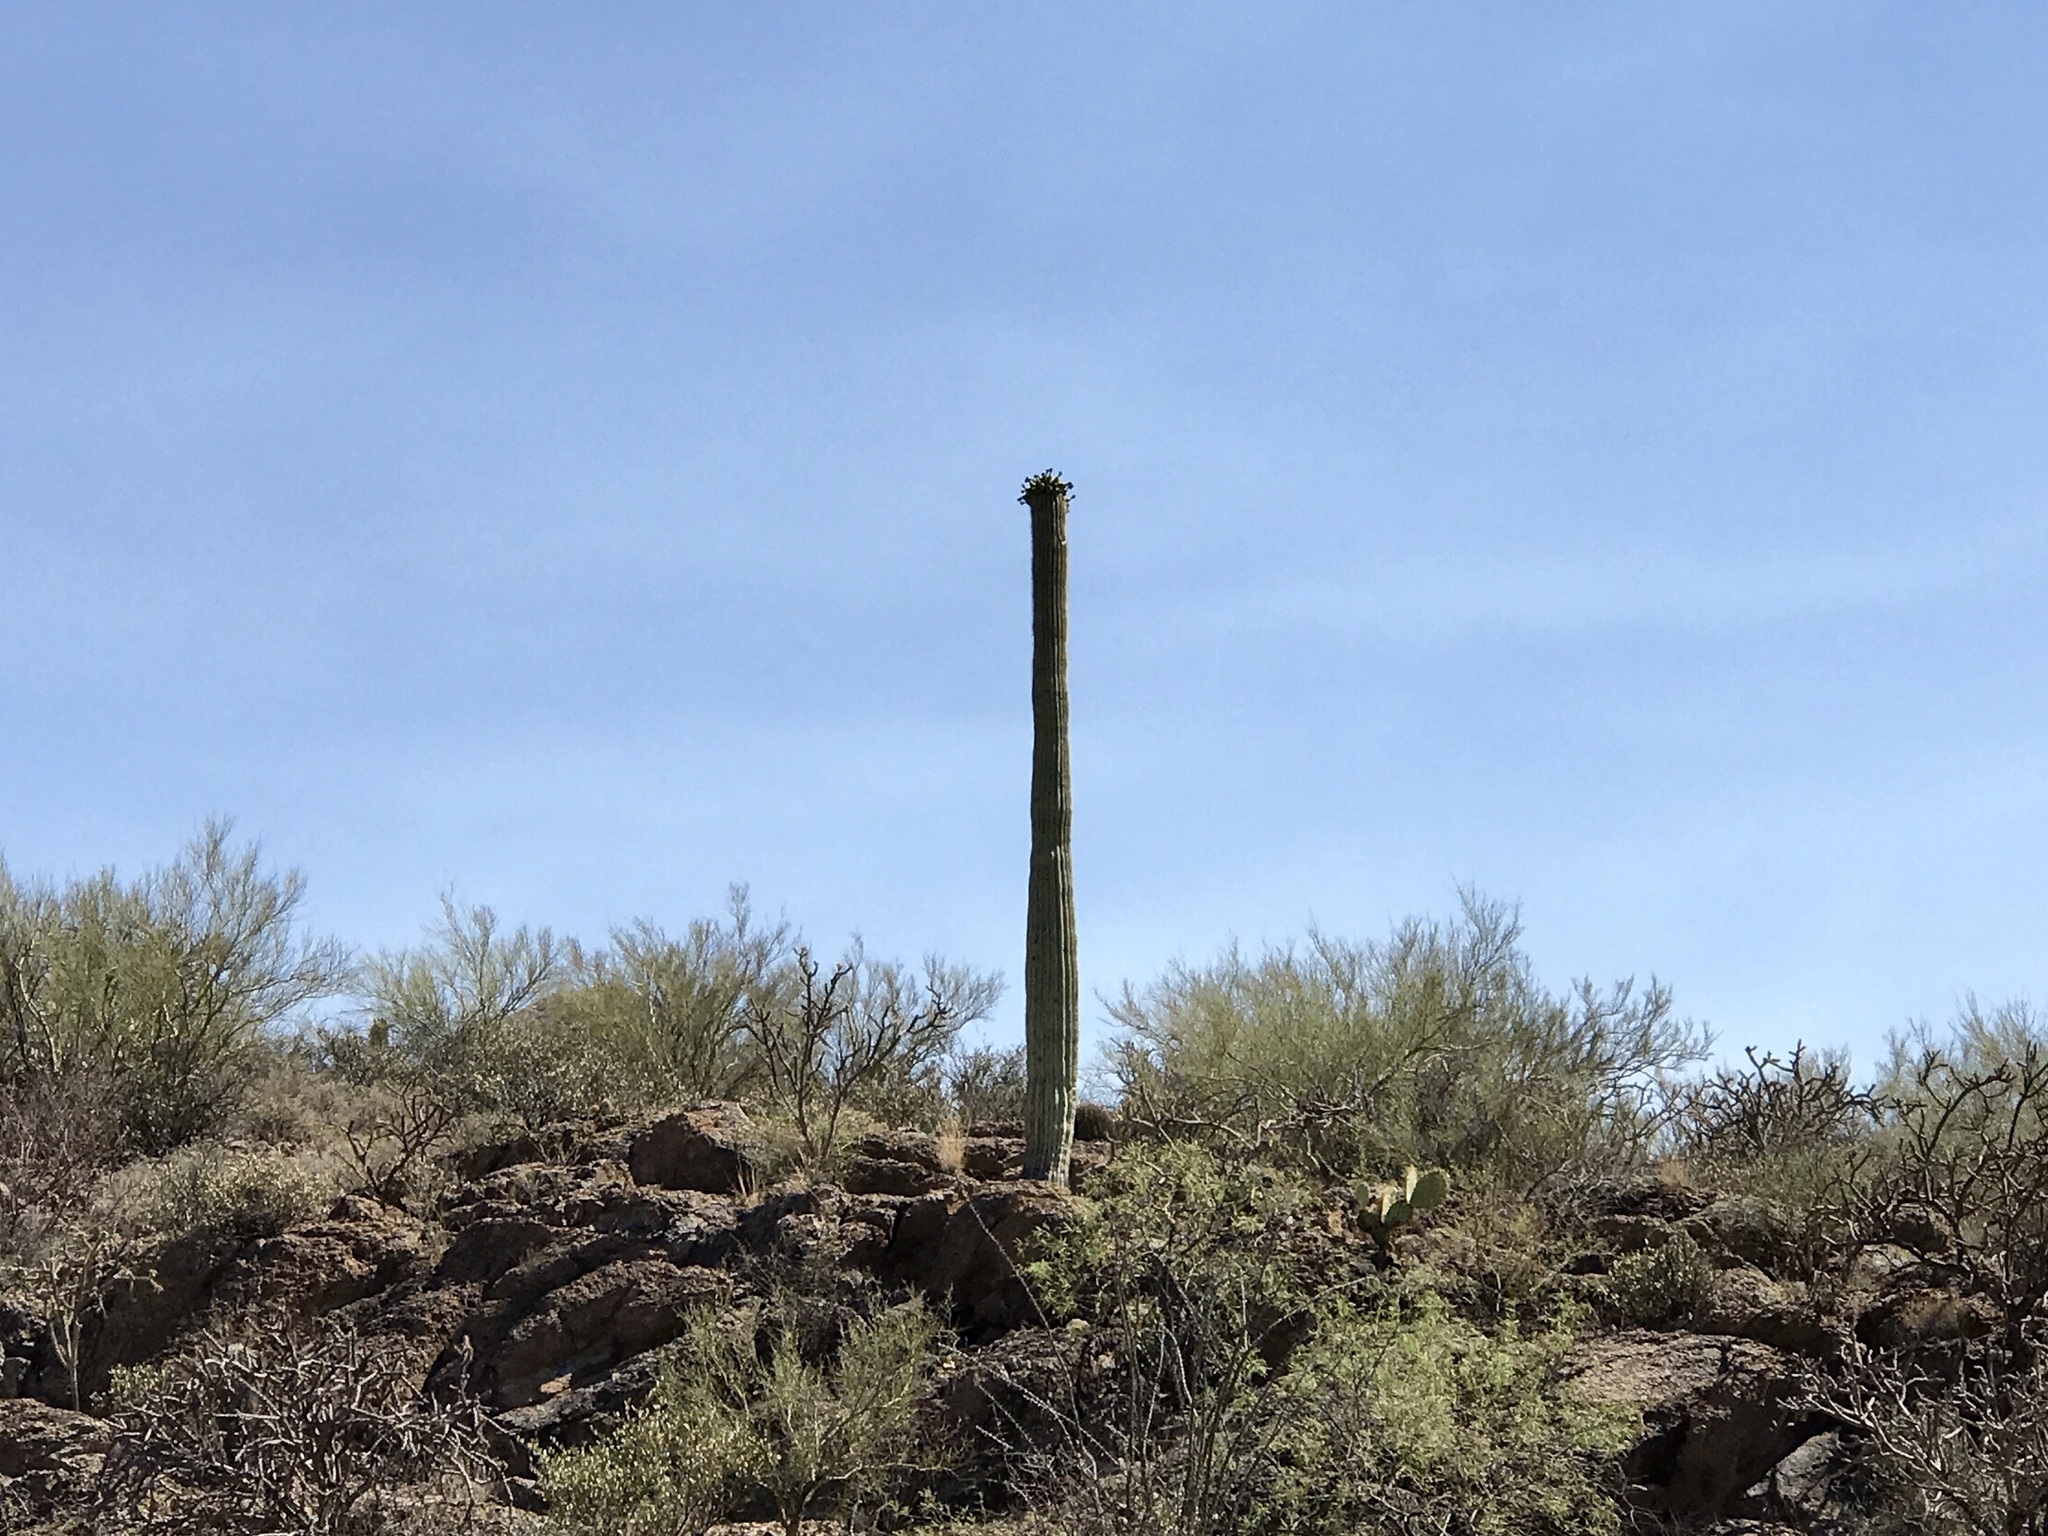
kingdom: Plantae
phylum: Tracheophyta
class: Magnoliopsida
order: Caryophyllales
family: Cactaceae
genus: Carnegiea
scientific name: Carnegiea gigantea
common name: Saguaro
